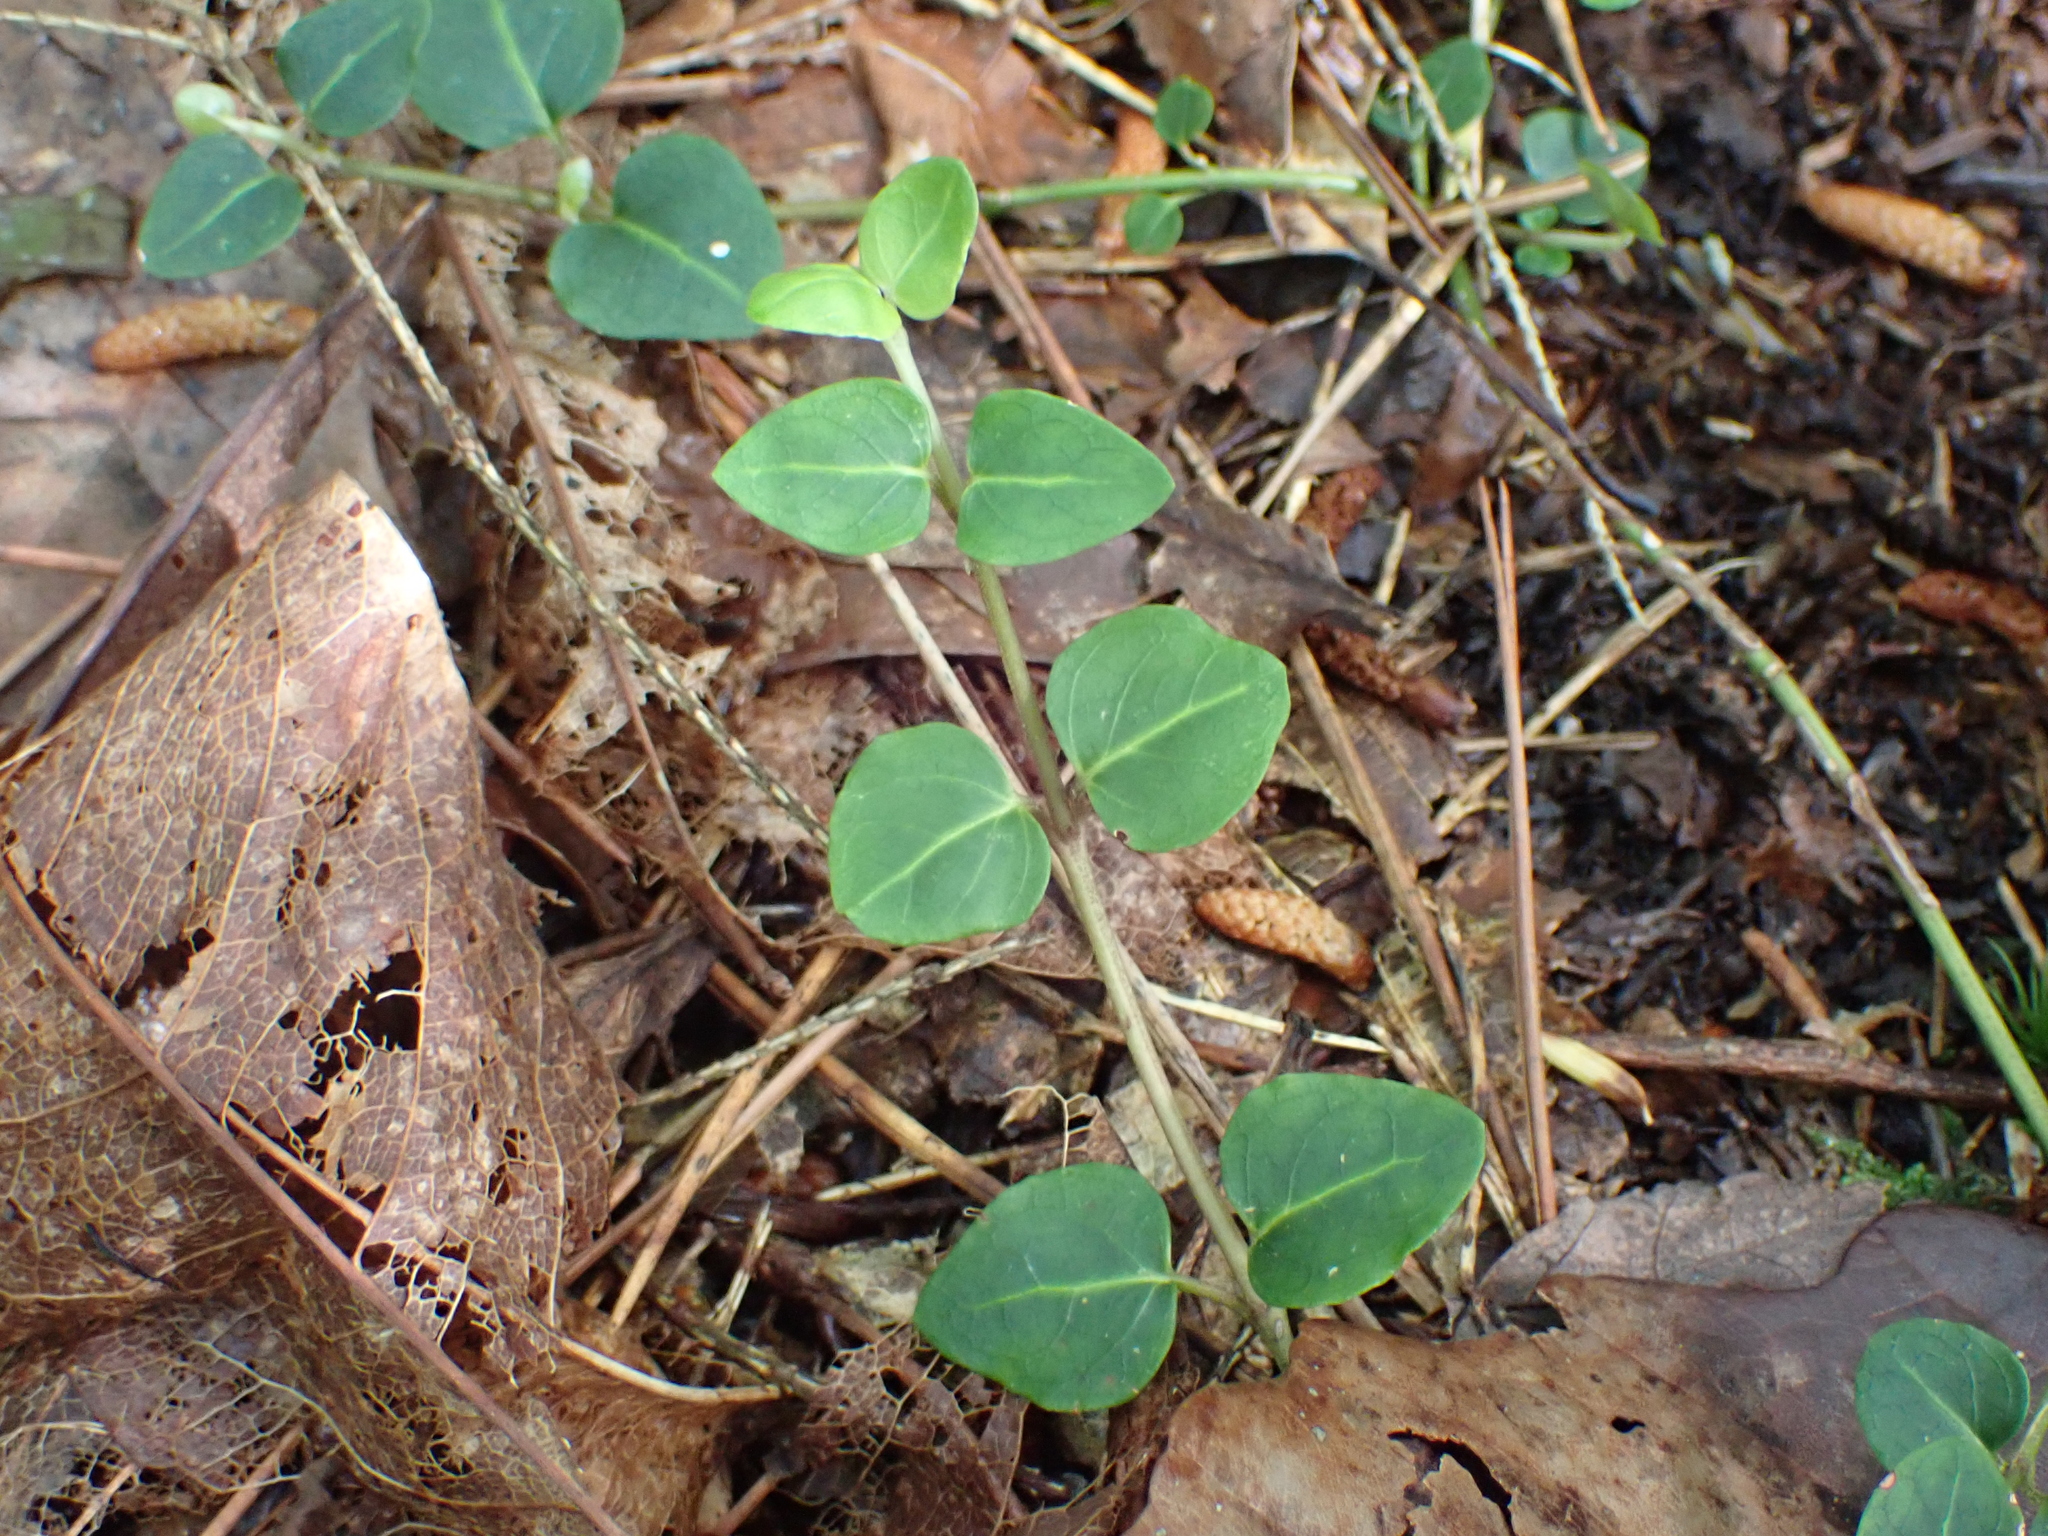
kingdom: Plantae
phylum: Tracheophyta
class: Magnoliopsida
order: Gentianales
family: Rubiaceae
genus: Mitchella
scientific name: Mitchella repens
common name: Partridge-berry
